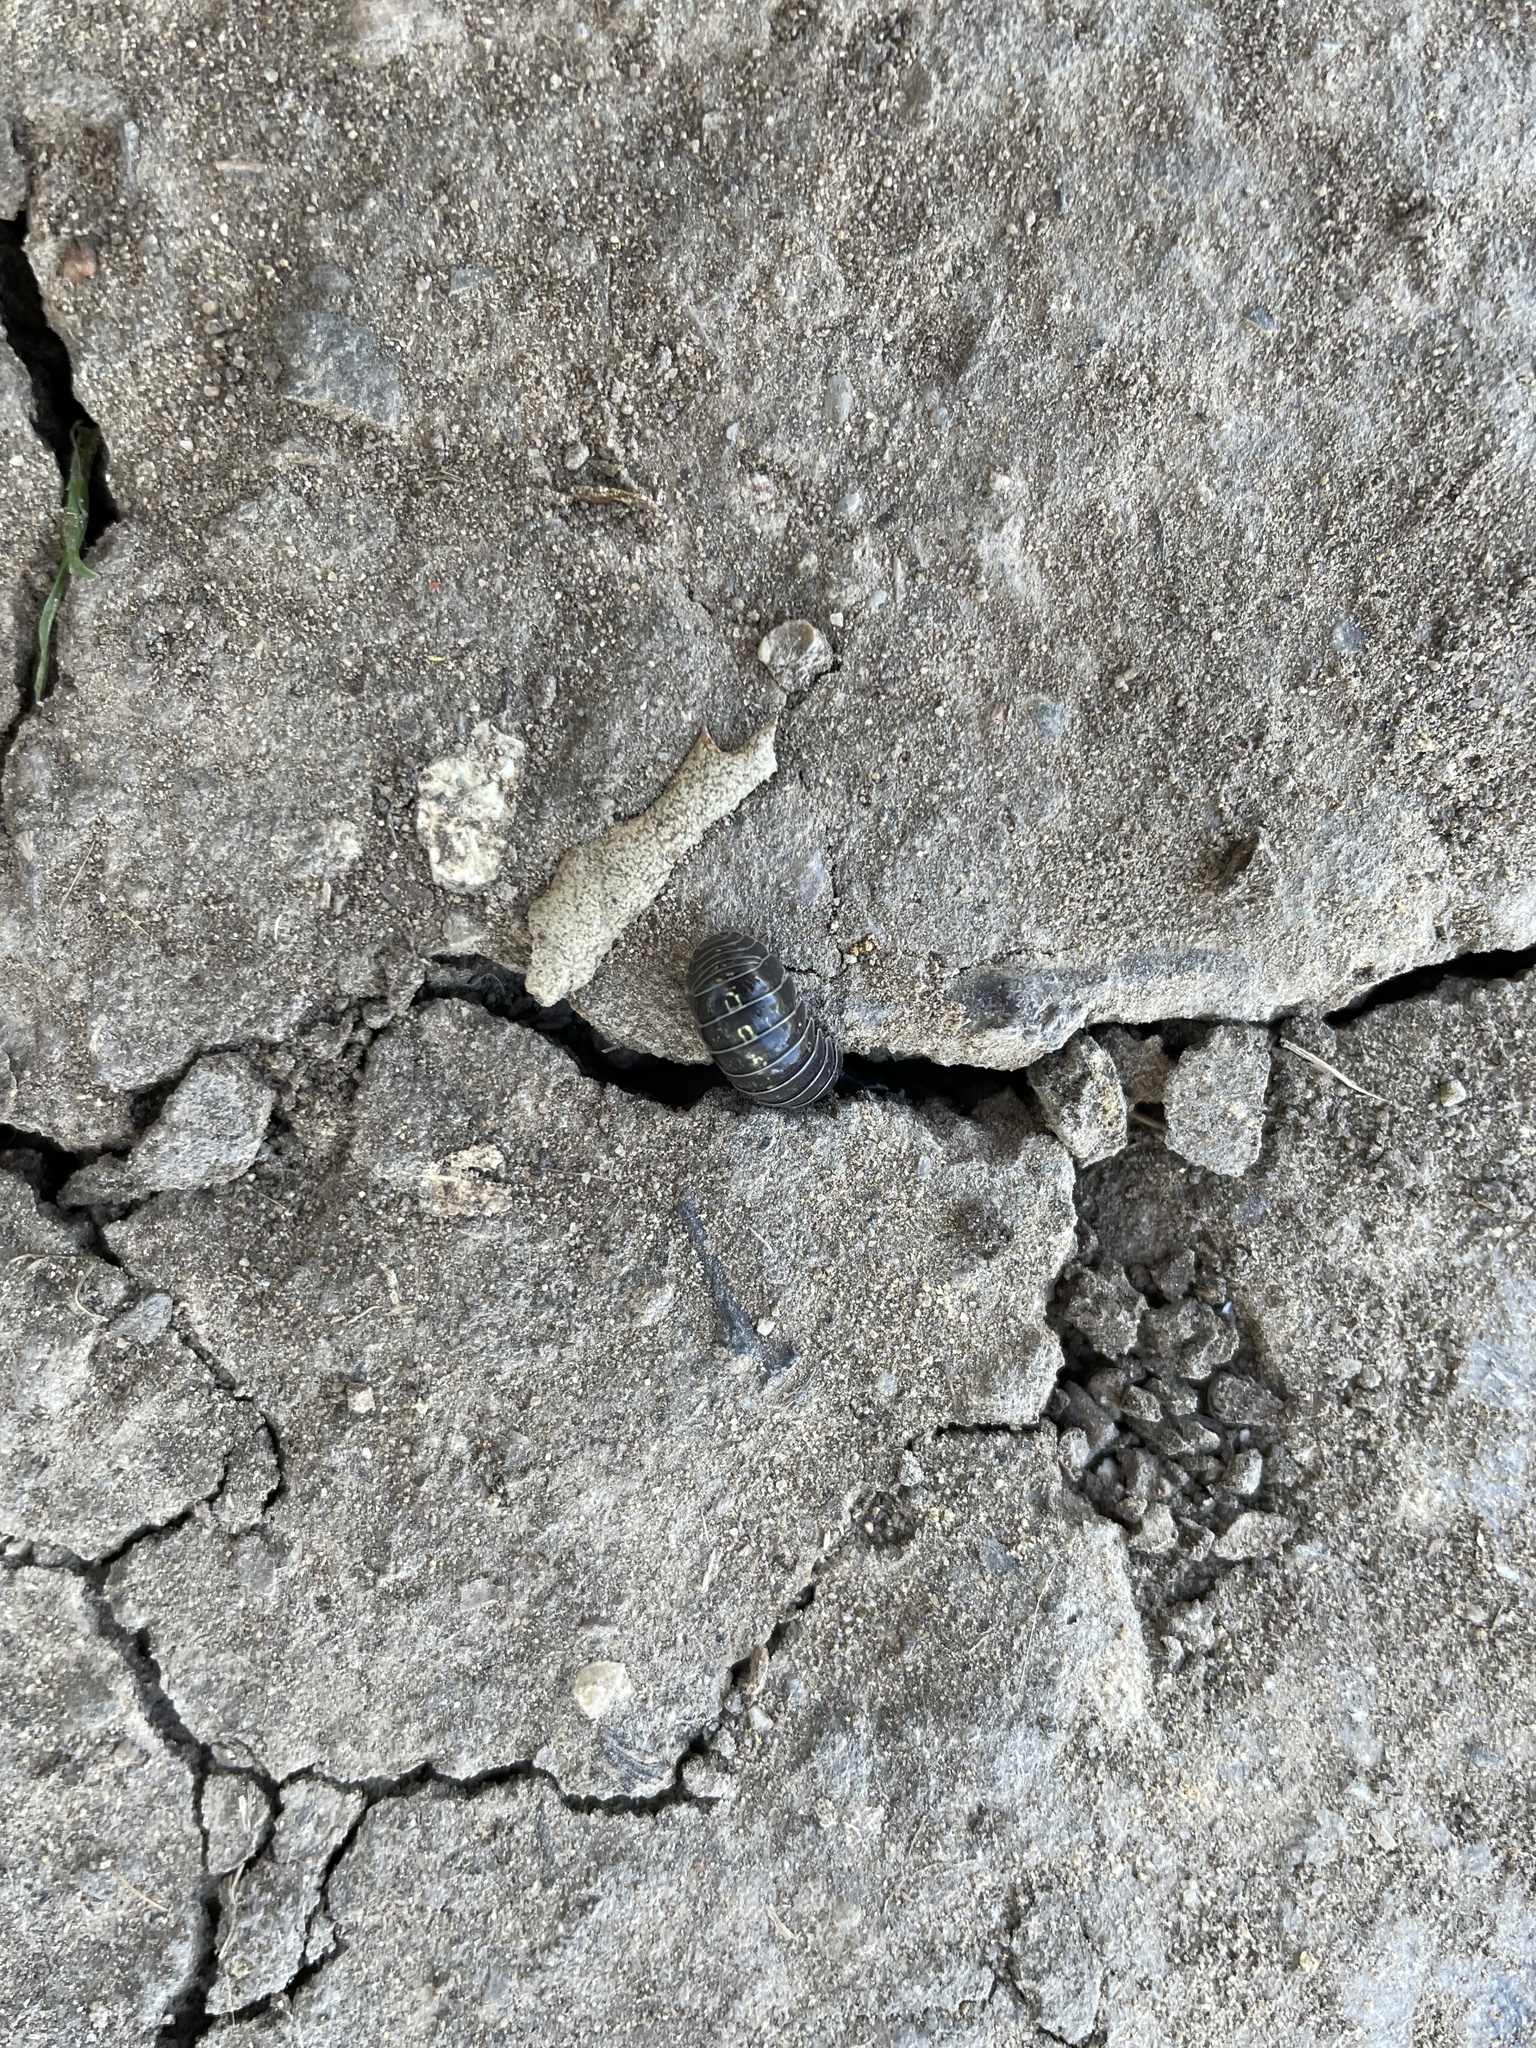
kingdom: Animalia
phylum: Arthropoda
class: Malacostraca
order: Isopoda
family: Armadillidiidae
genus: Armadillidium
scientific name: Armadillidium vulgare
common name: Common pill woodlouse
